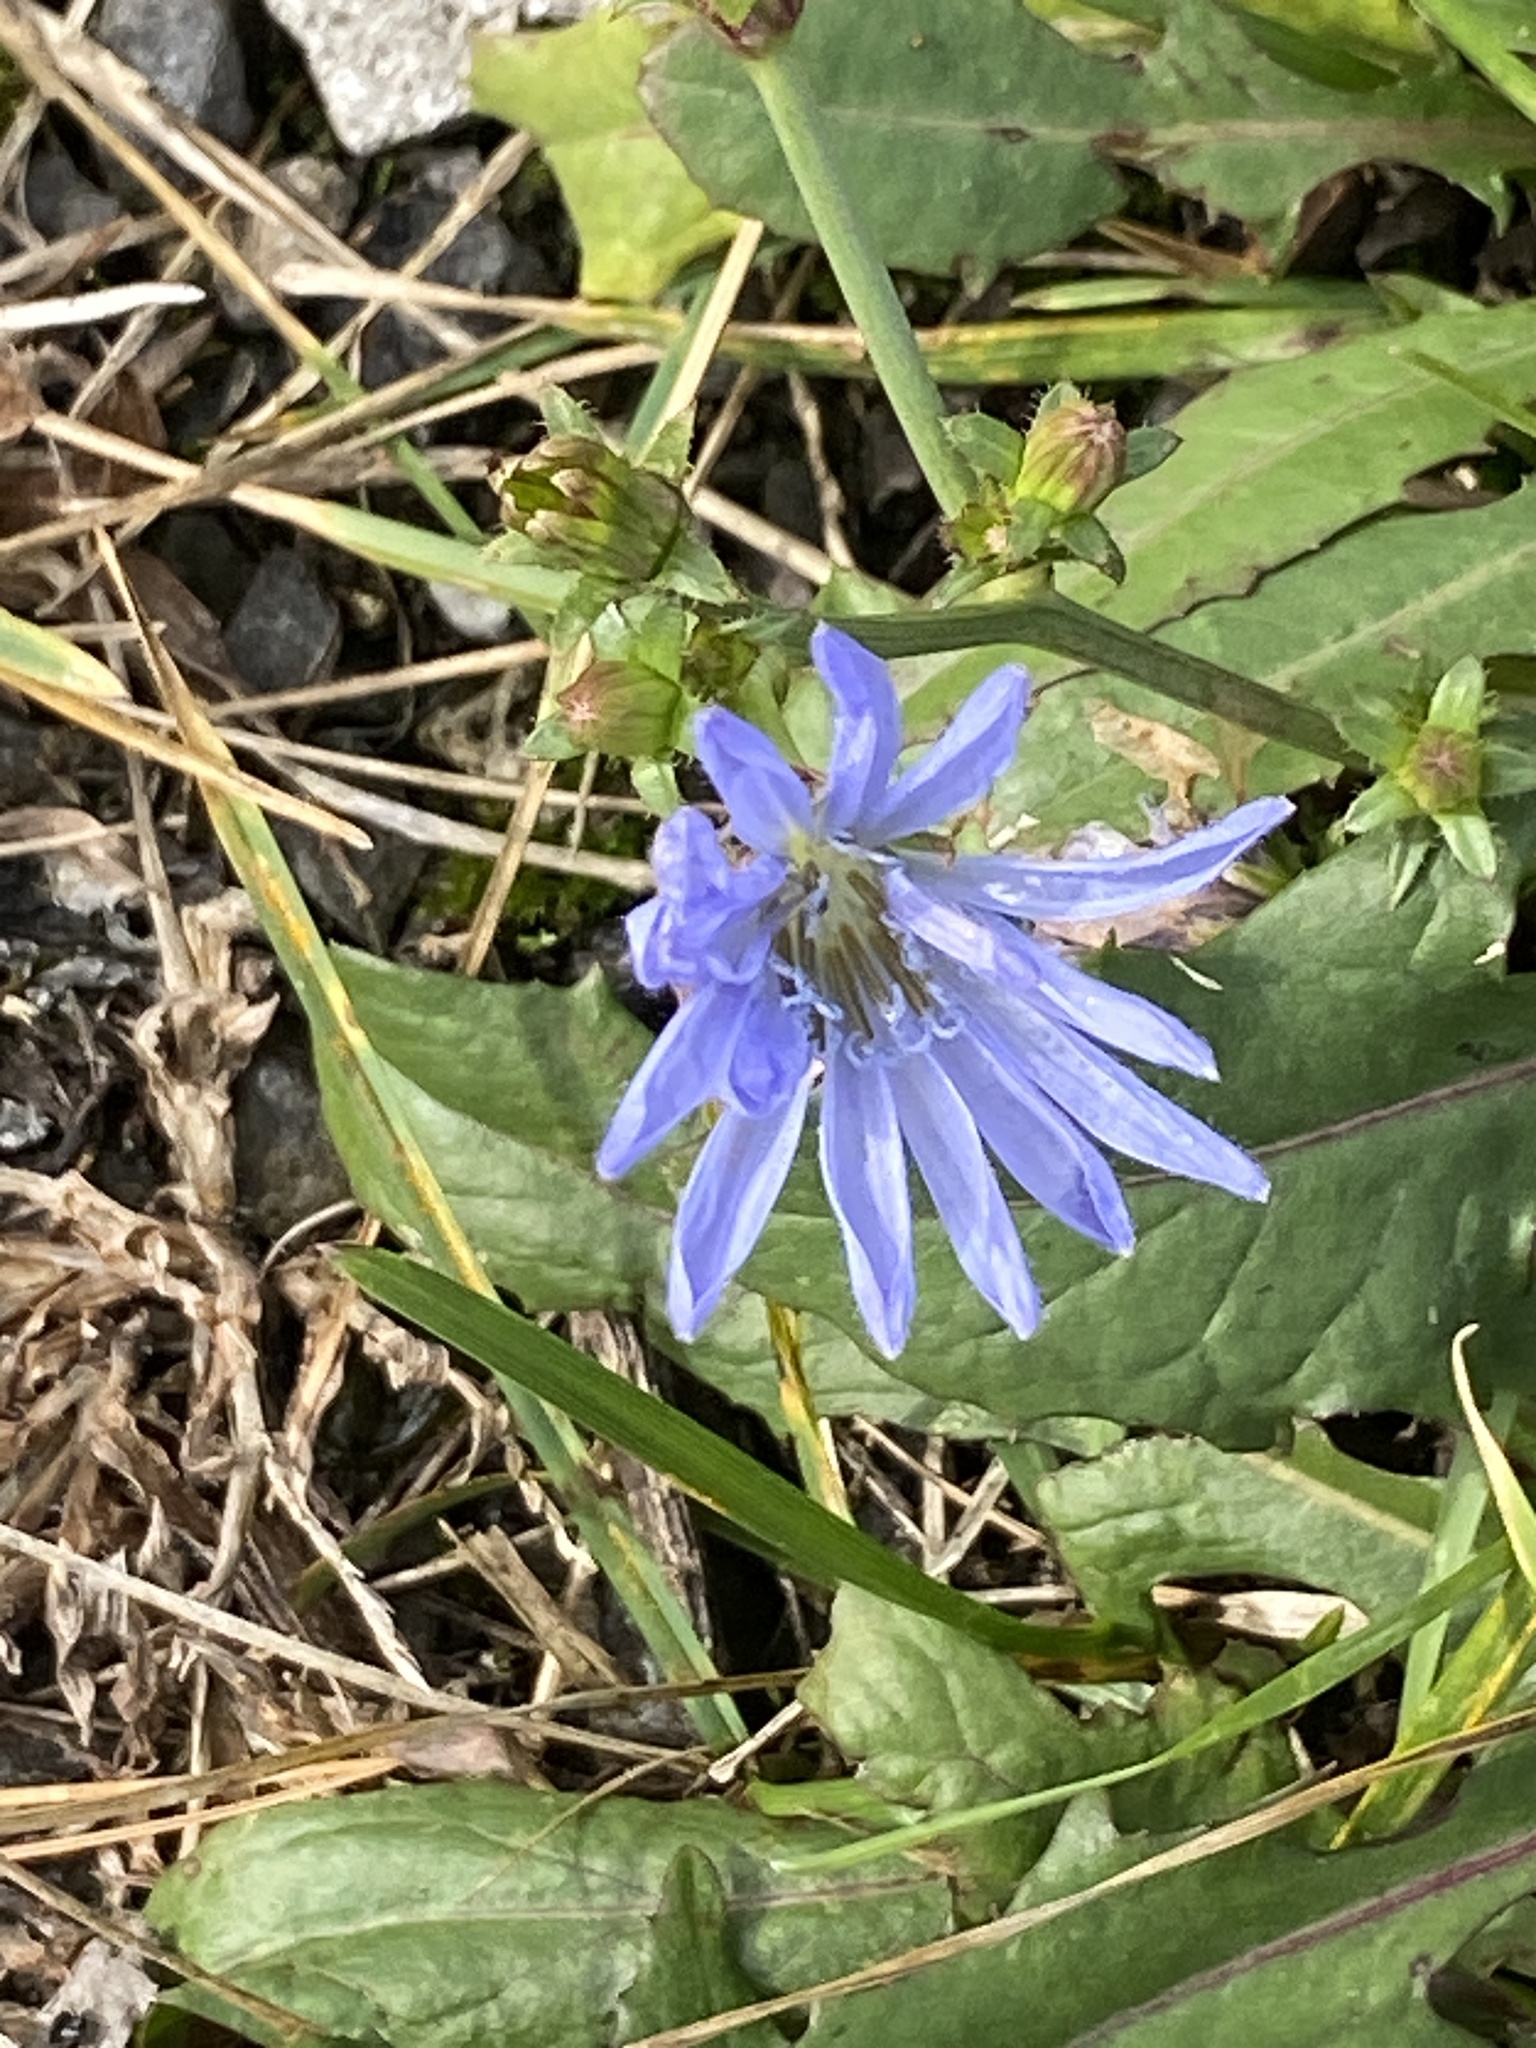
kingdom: Plantae
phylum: Tracheophyta
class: Magnoliopsida
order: Asterales
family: Asteraceae
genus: Cichorium
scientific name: Cichorium intybus
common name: Chicory
